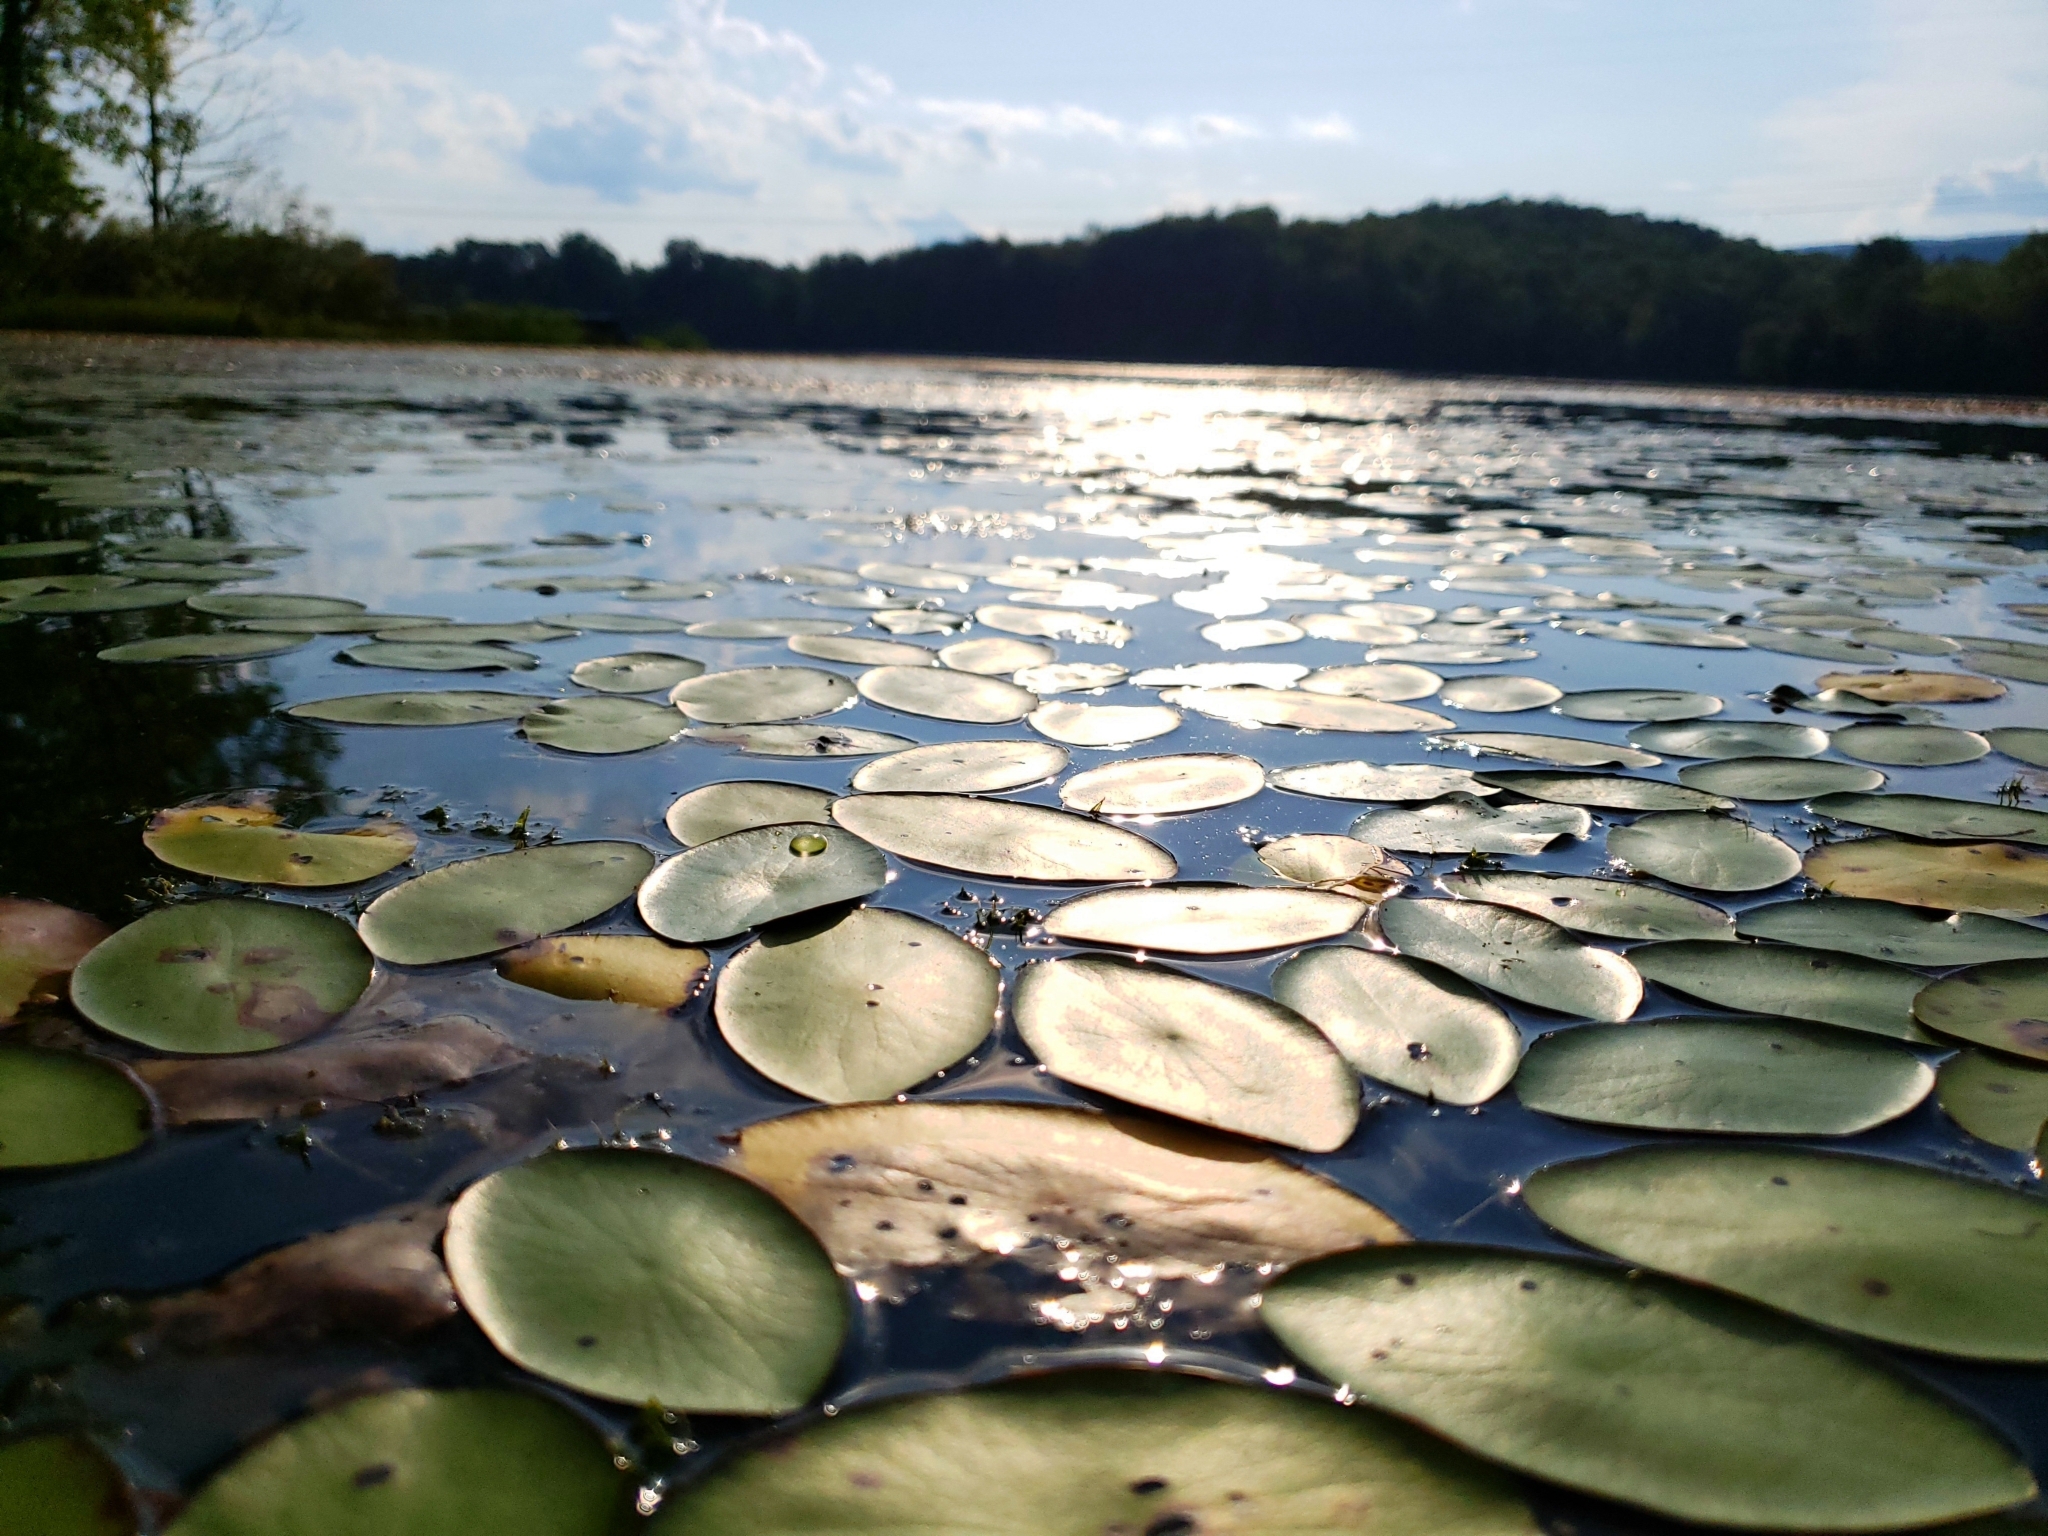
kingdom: Plantae
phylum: Tracheophyta
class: Magnoliopsida
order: Nymphaeales
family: Cabombaceae
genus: Brasenia
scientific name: Brasenia schreberi
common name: Water-shield
